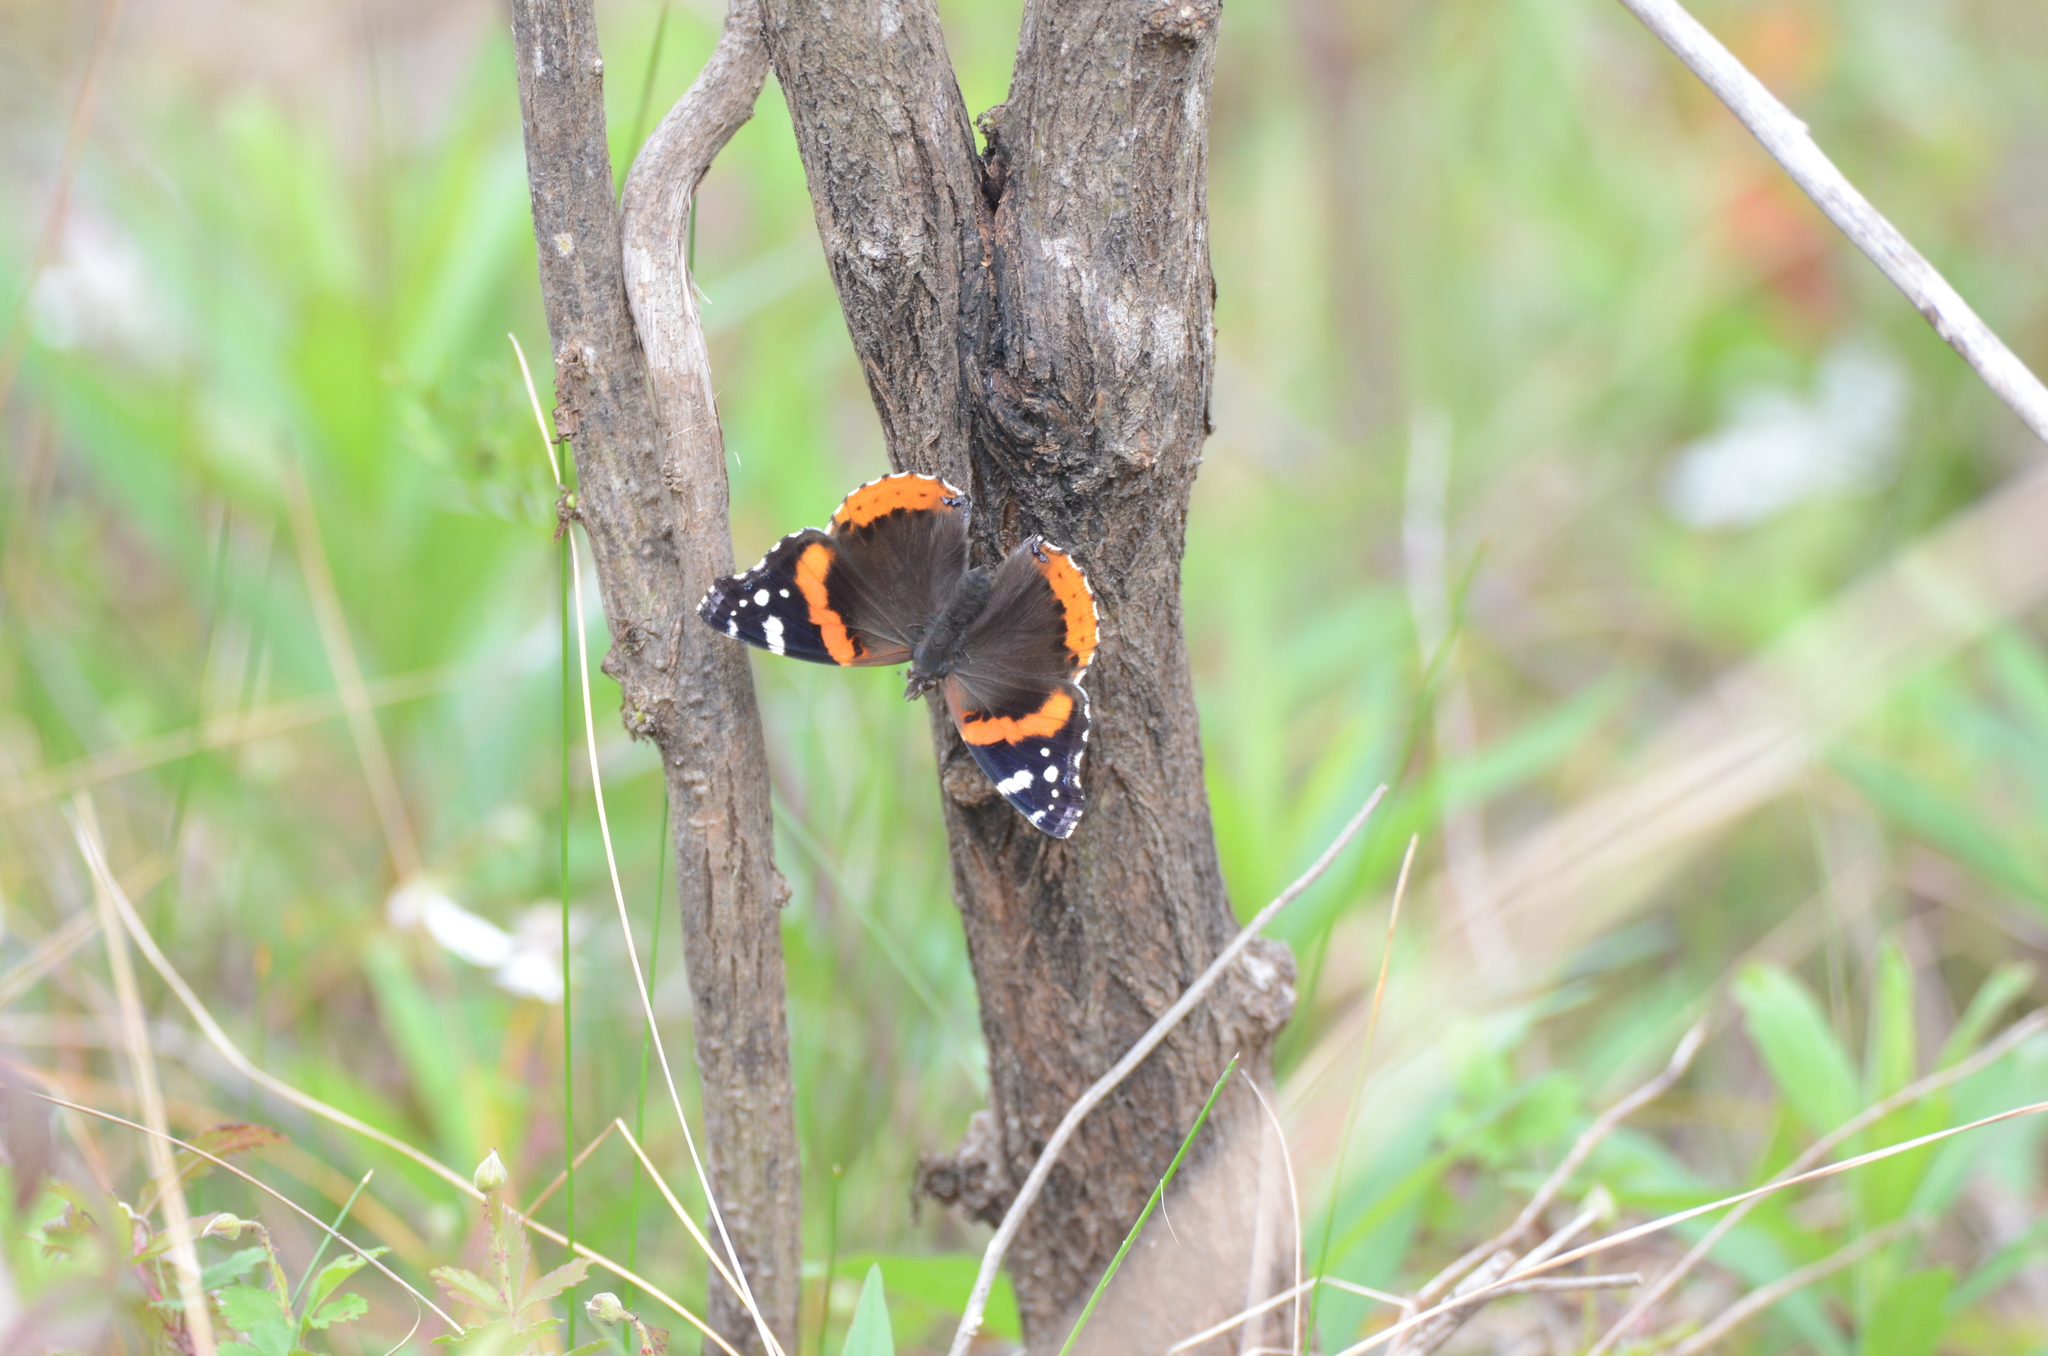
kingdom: Animalia
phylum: Arthropoda
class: Insecta
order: Lepidoptera
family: Nymphalidae
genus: Vanessa
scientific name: Vanessa atalanta
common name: Red admiral
